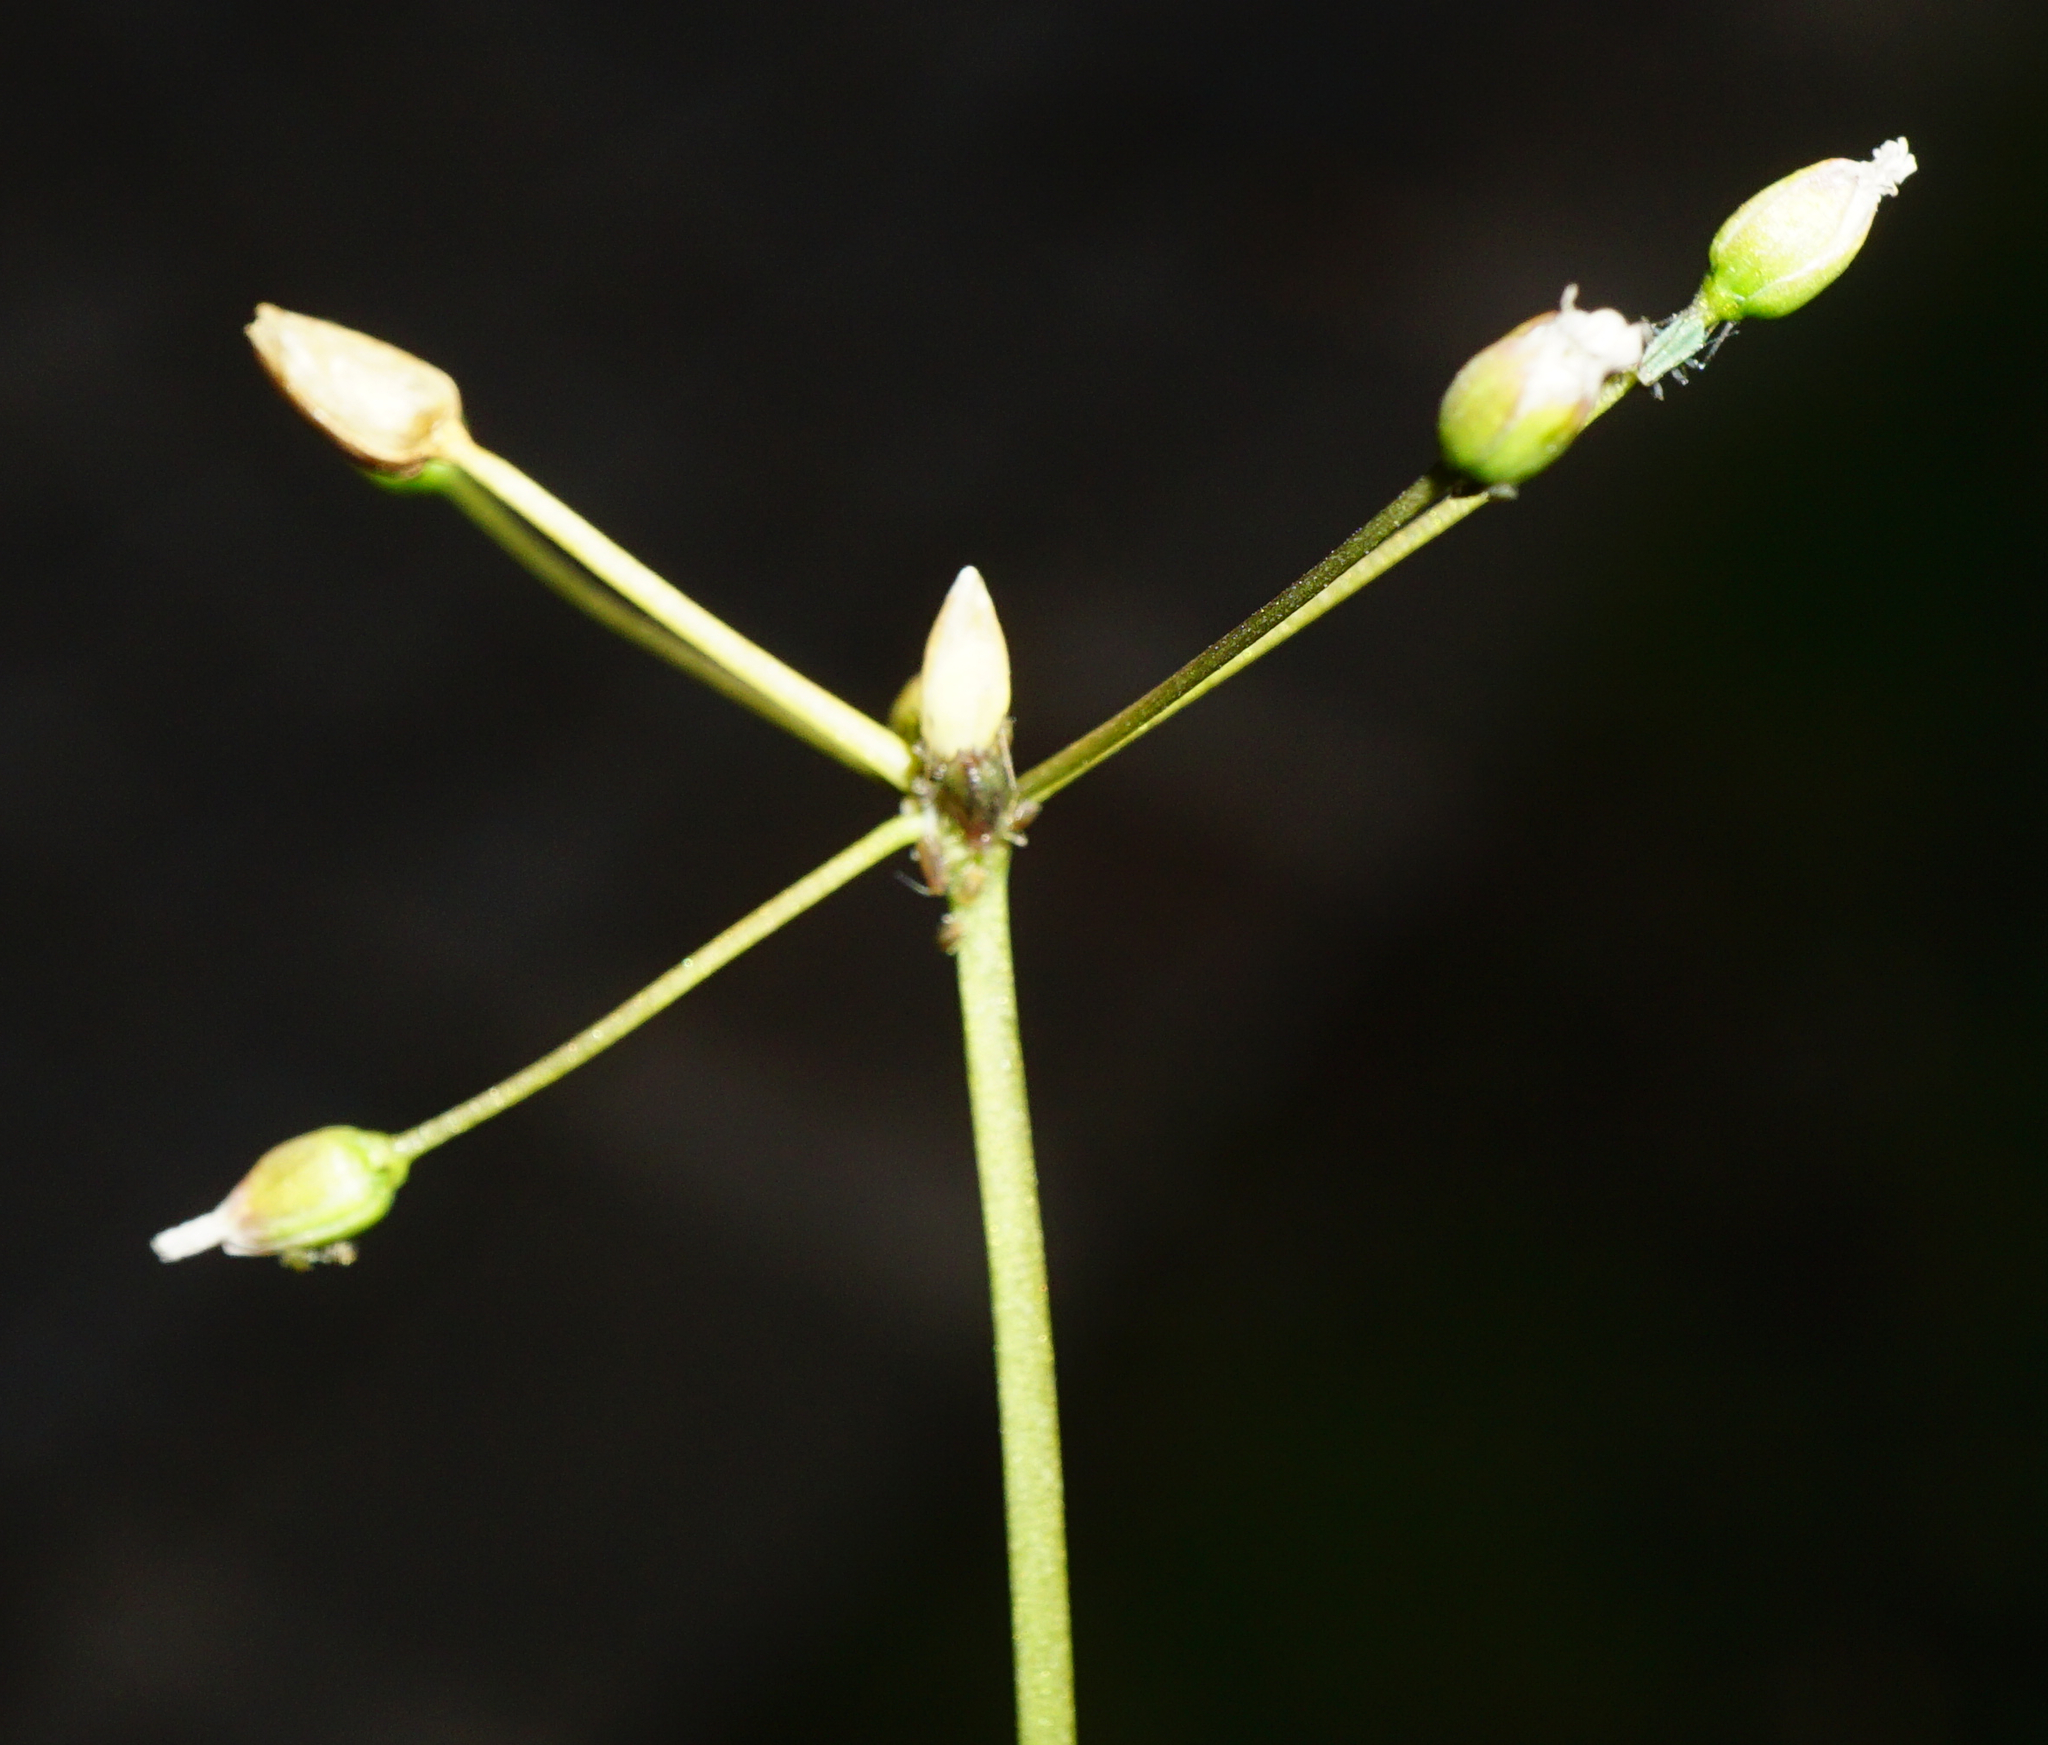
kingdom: Plantae
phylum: Tracheophyta
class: Magnoliopsida
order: Caryophyllales
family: Caryophyllaceae
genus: Holosteum
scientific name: Holosteum umbellatum
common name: Jagged chickweed
